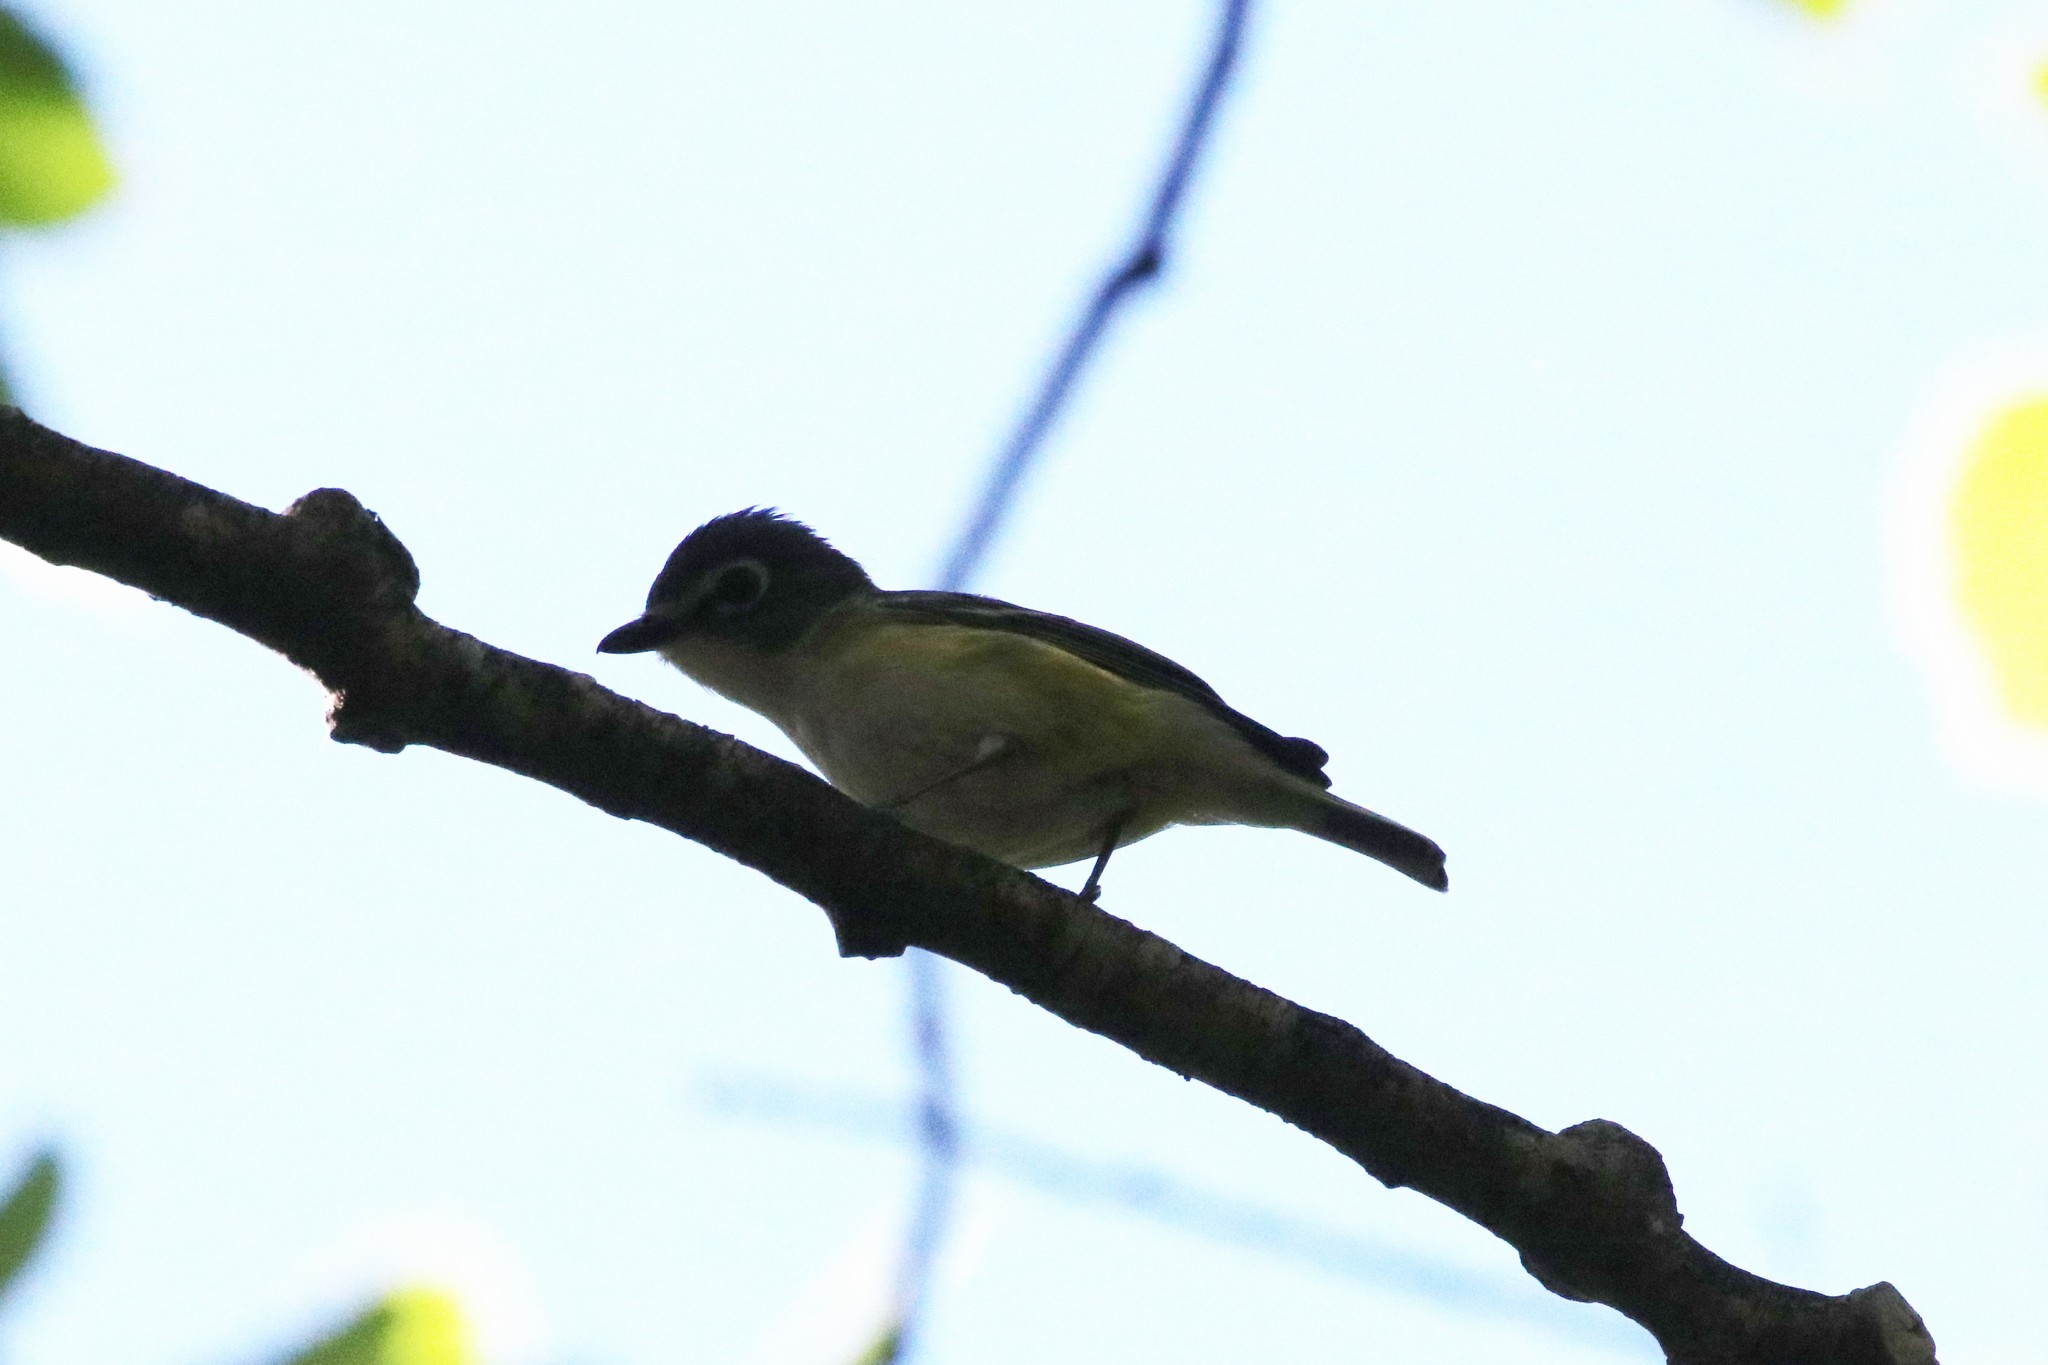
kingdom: Animalia
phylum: Chordata
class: Aves
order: Passeriformes
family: Vireonidae
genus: Vireo
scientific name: Vireo solitarius
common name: Blue-headed vireo
